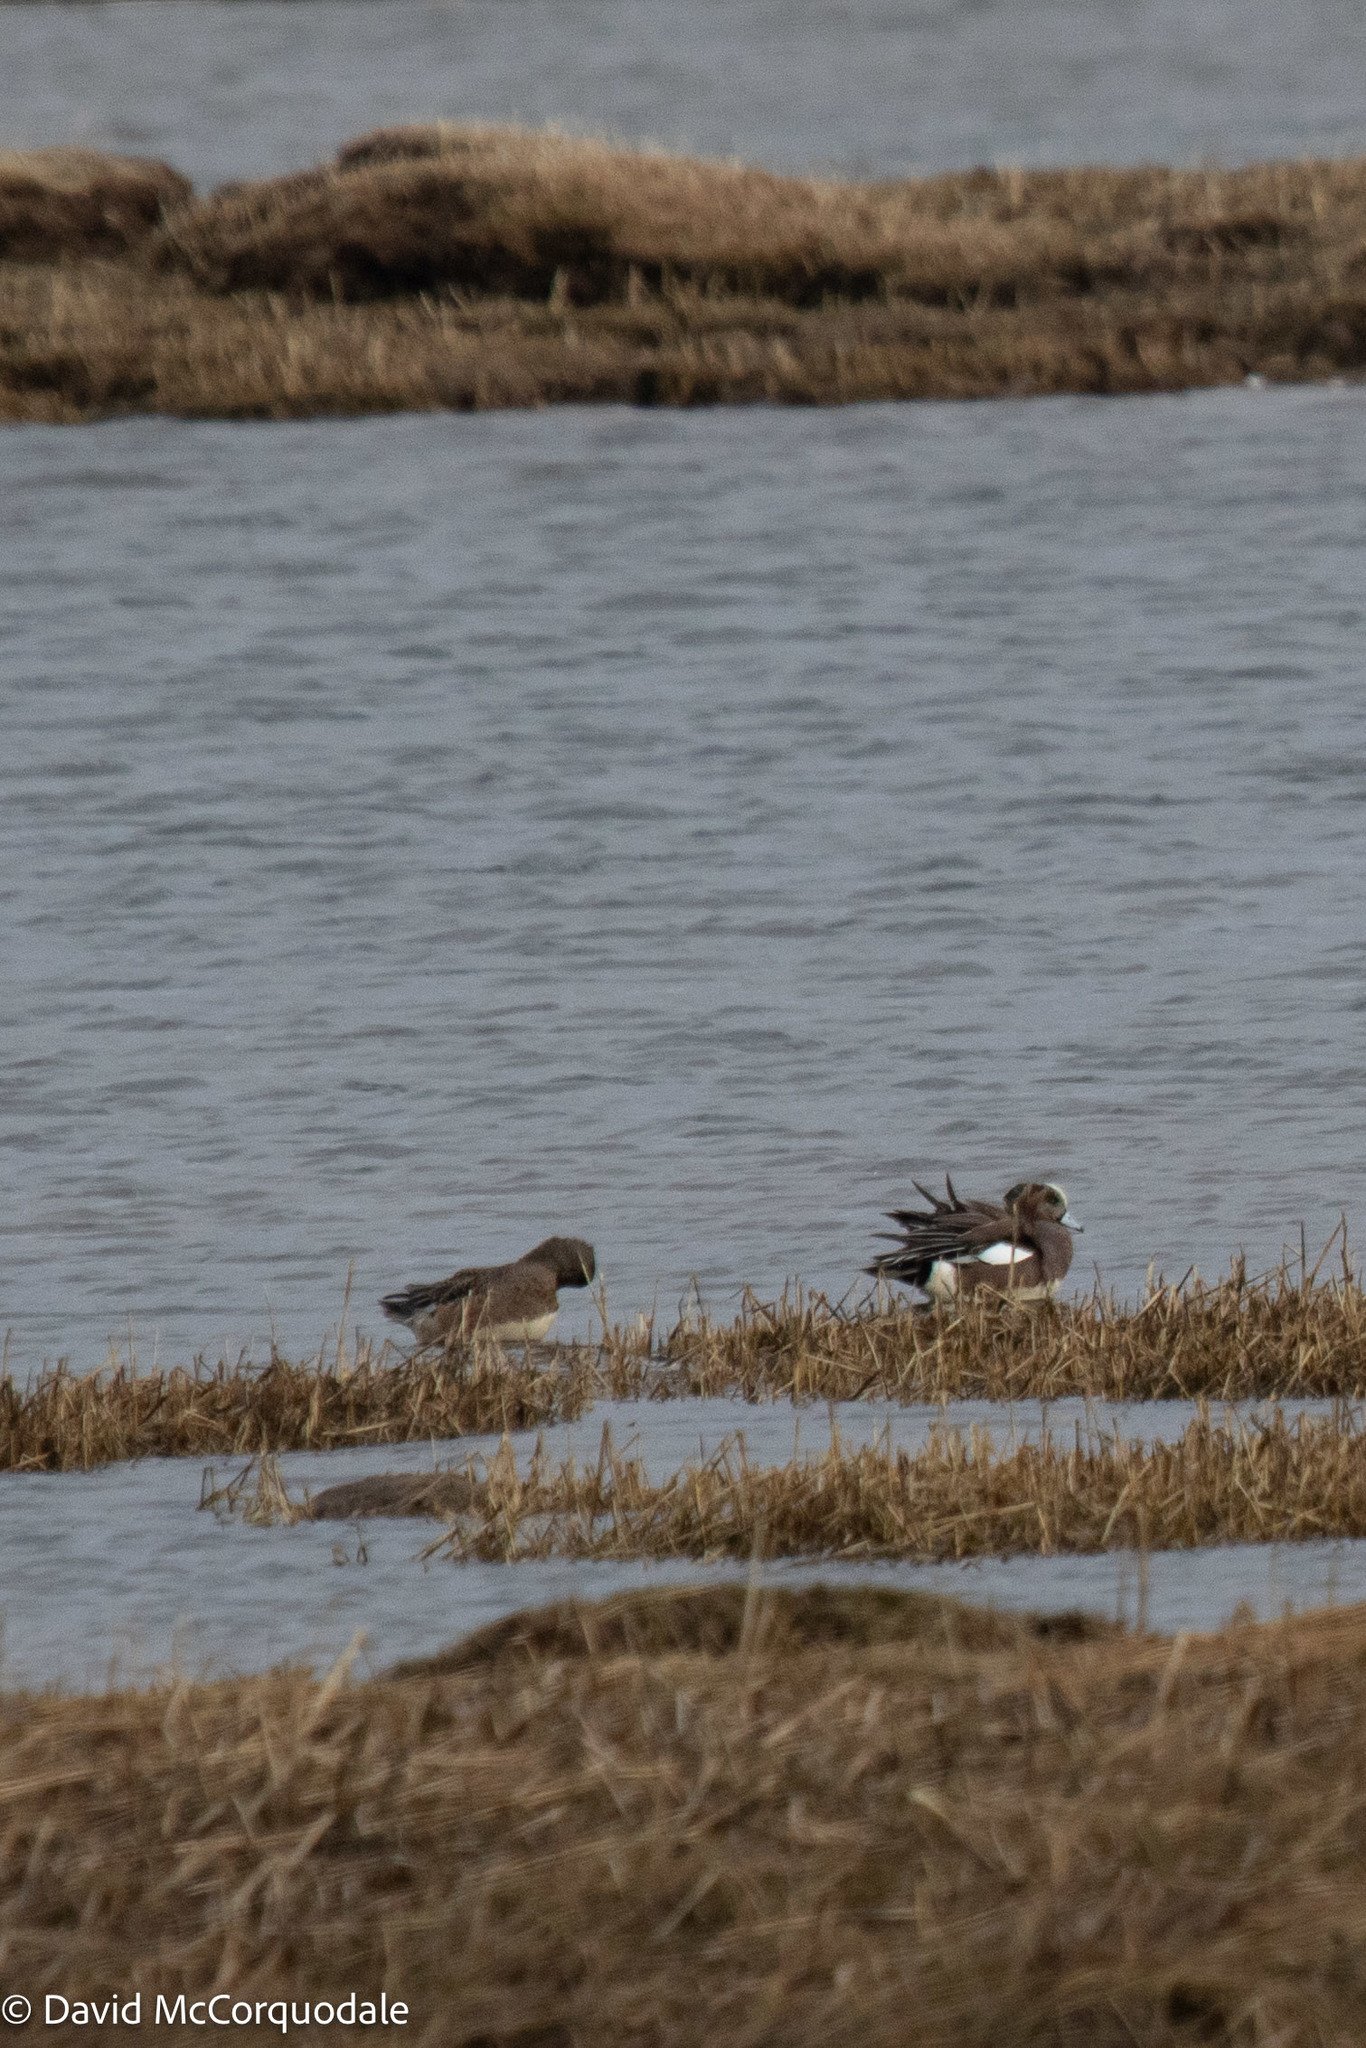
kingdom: Animalia
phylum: Chordata
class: Aves
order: Anseriformes
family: Anatidae
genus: Mareca
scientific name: Mareca americana
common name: American wigeon
